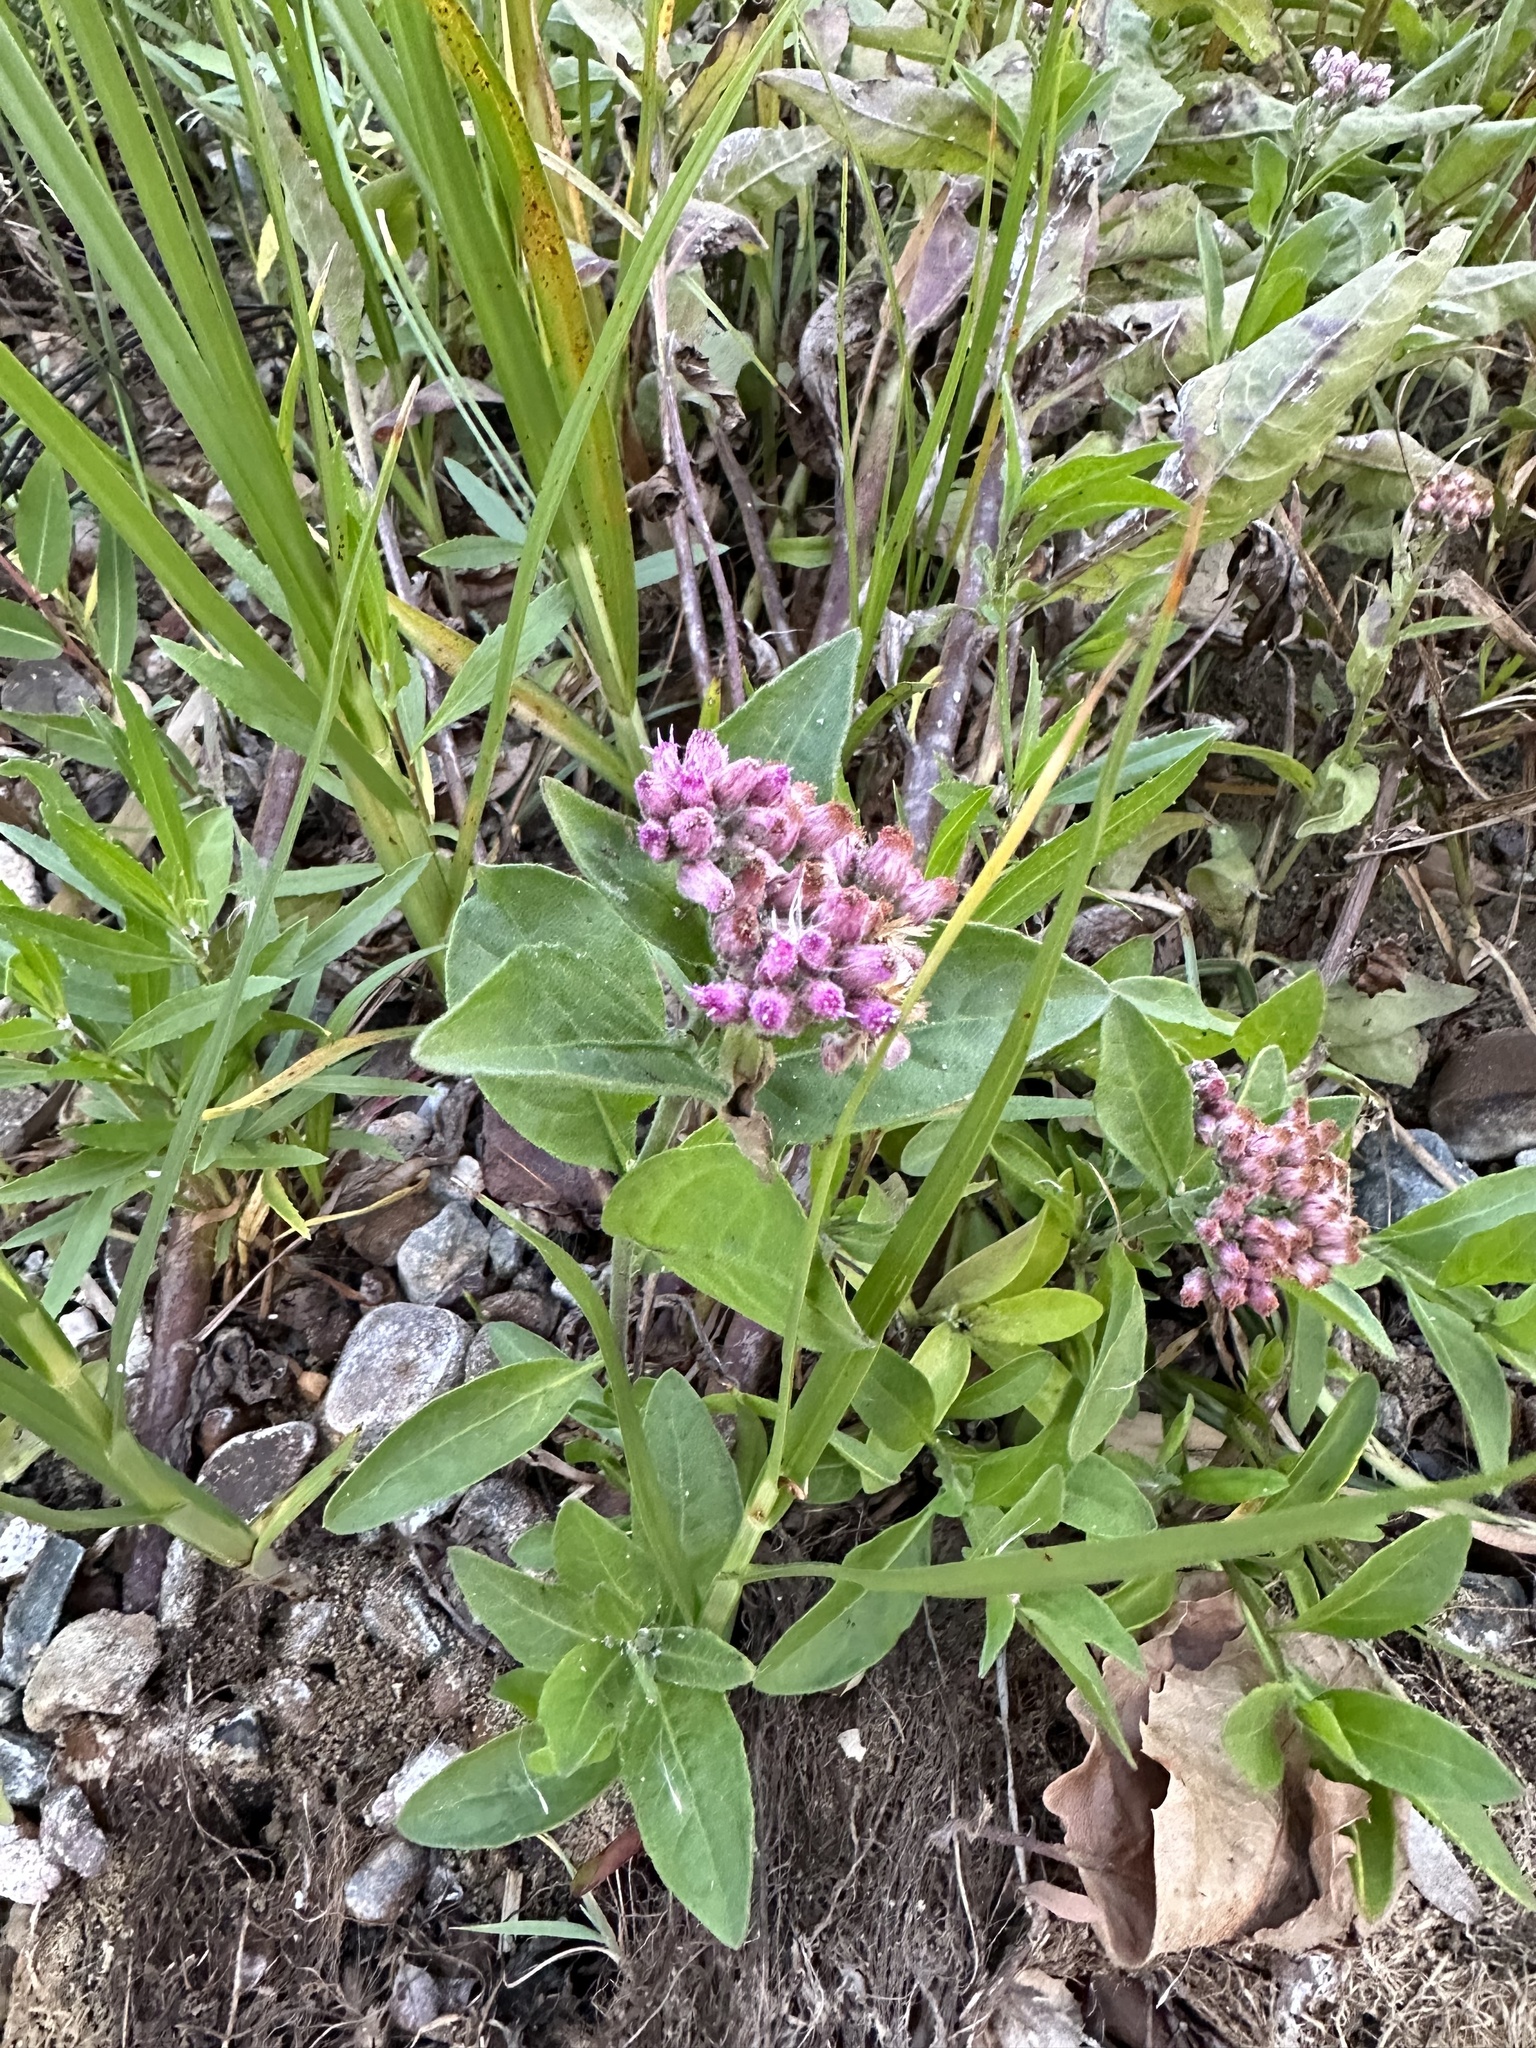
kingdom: Plantae
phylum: Tracheophyta
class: Magnoliopsida
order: Asterales
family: Asteraceae
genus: Pluchea
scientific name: Pluchea odorata
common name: Saltmarsh fleabane
